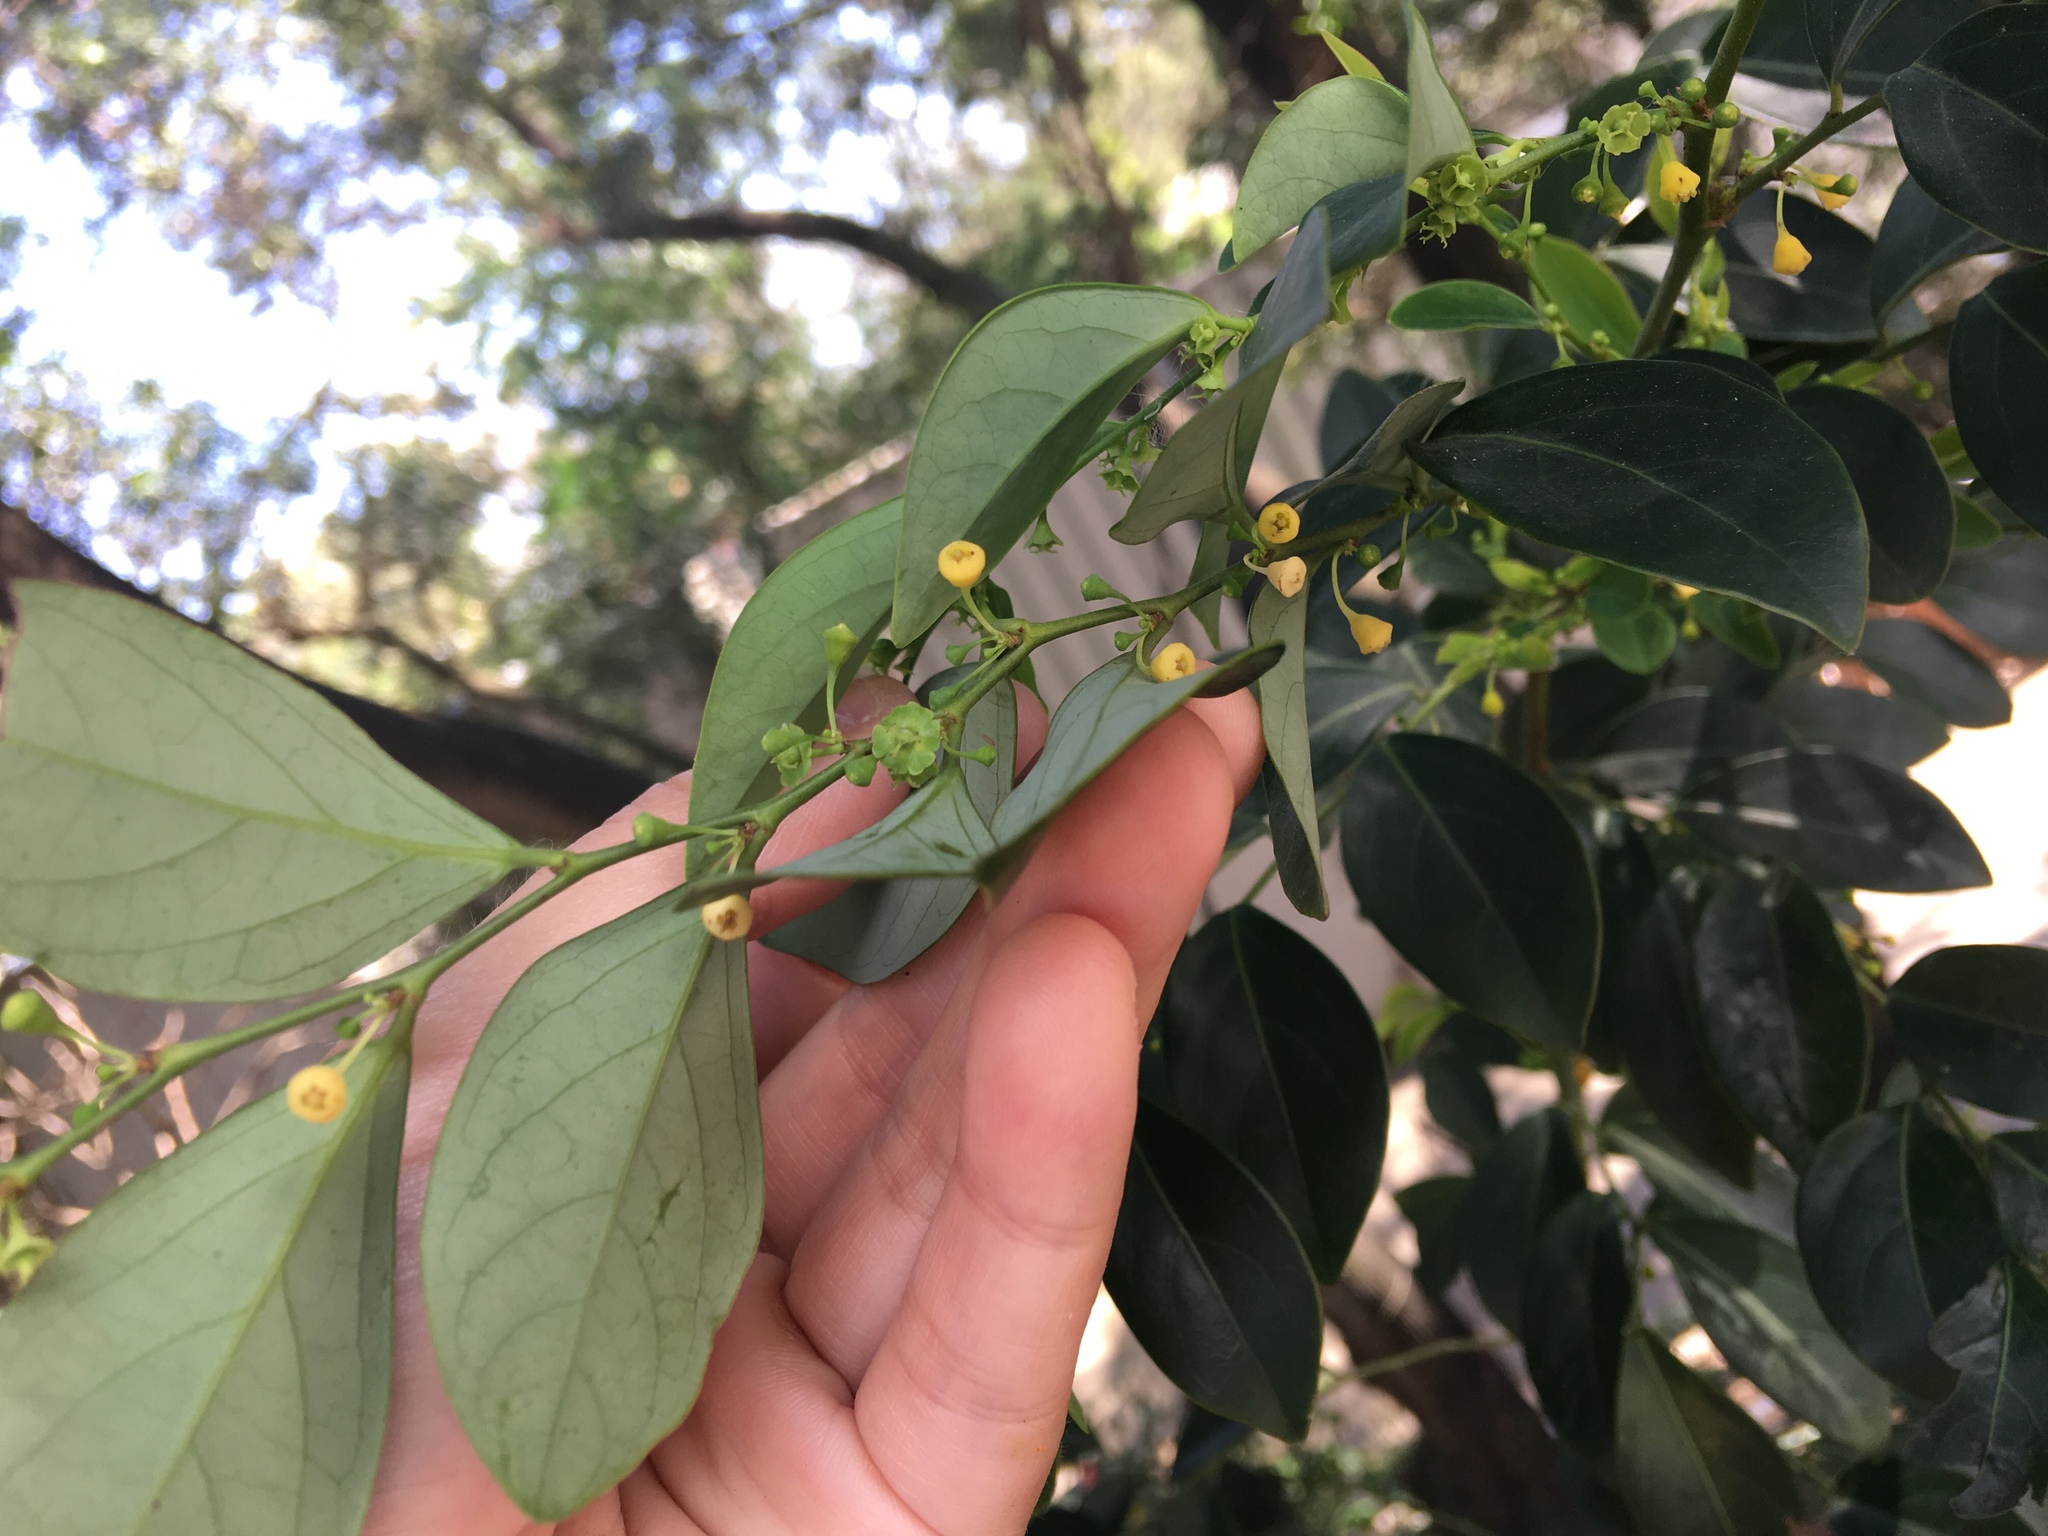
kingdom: Plantae
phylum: Tracheophyta
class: Magnoliopsida
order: Malpighiales
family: Phyllanthaceae
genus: Breynia
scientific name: Breynia fruticosa
